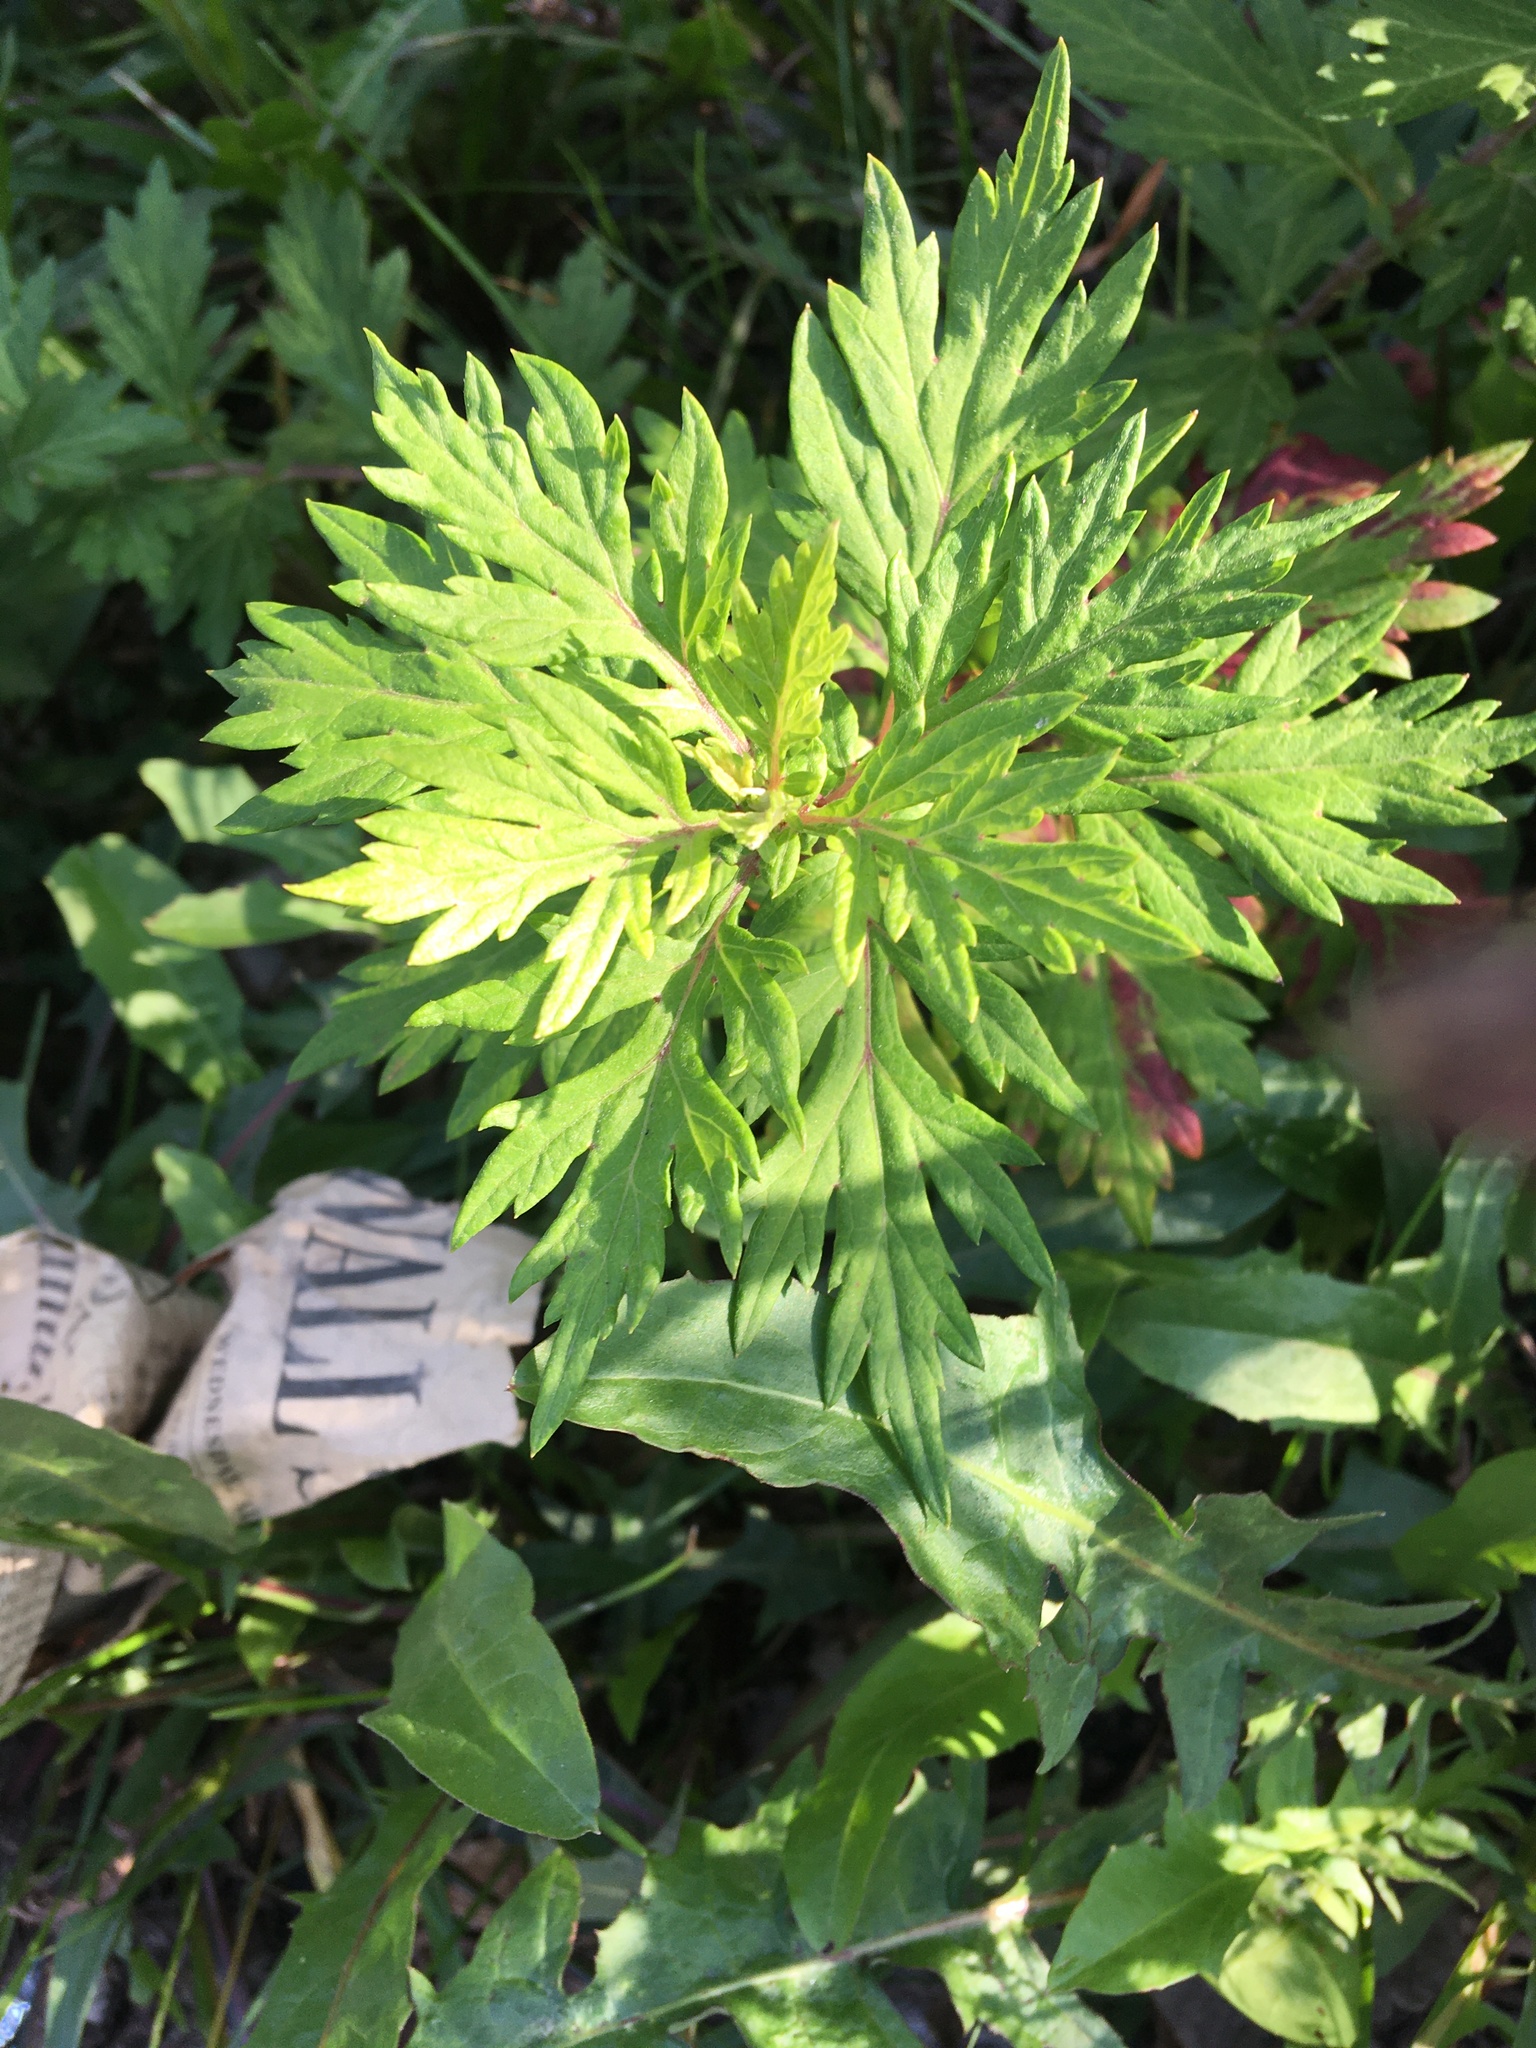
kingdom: Plantae
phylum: Tracheophyta
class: Magnoliopsida
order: Asterales
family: Asteraceae
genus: Artemisia
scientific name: Artemisia vulgaris
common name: Mugwort
